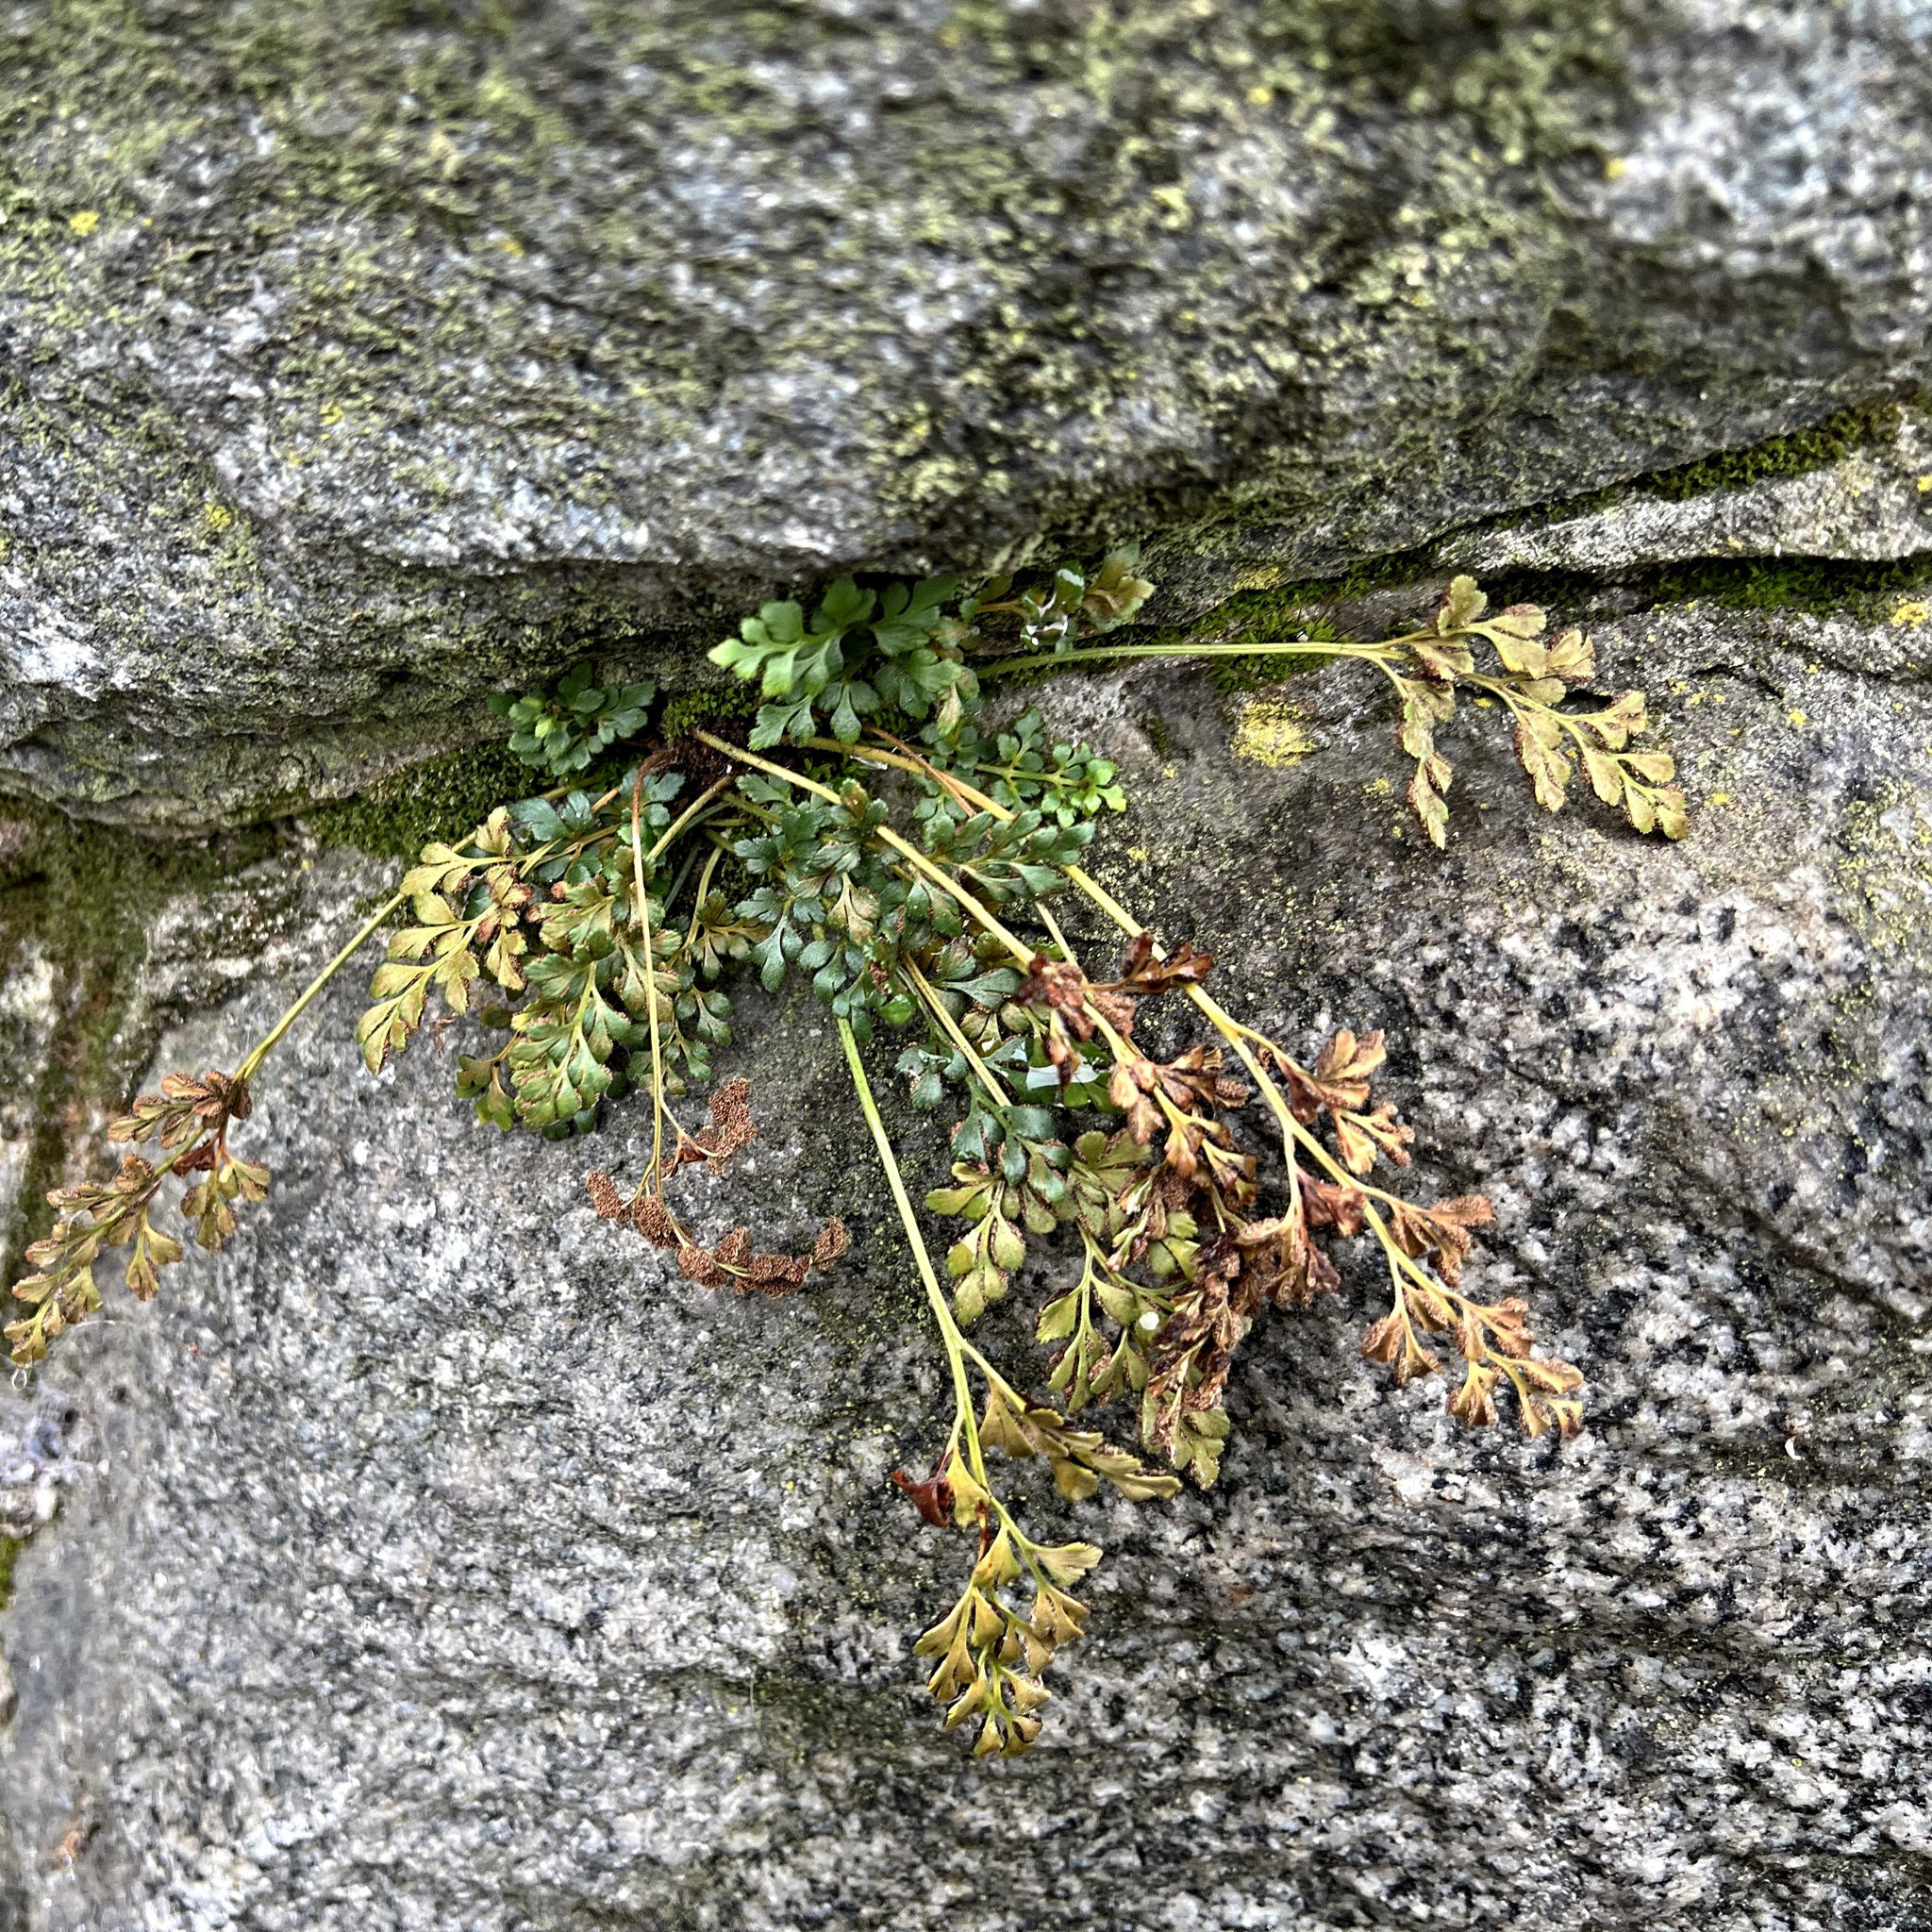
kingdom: Plantae
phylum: Tracheophyta
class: Polypodiopsida
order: Polypodiales
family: Aspleniaceae
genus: Asplenium
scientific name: Asplenium ruta-muraria
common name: Wall-rue
